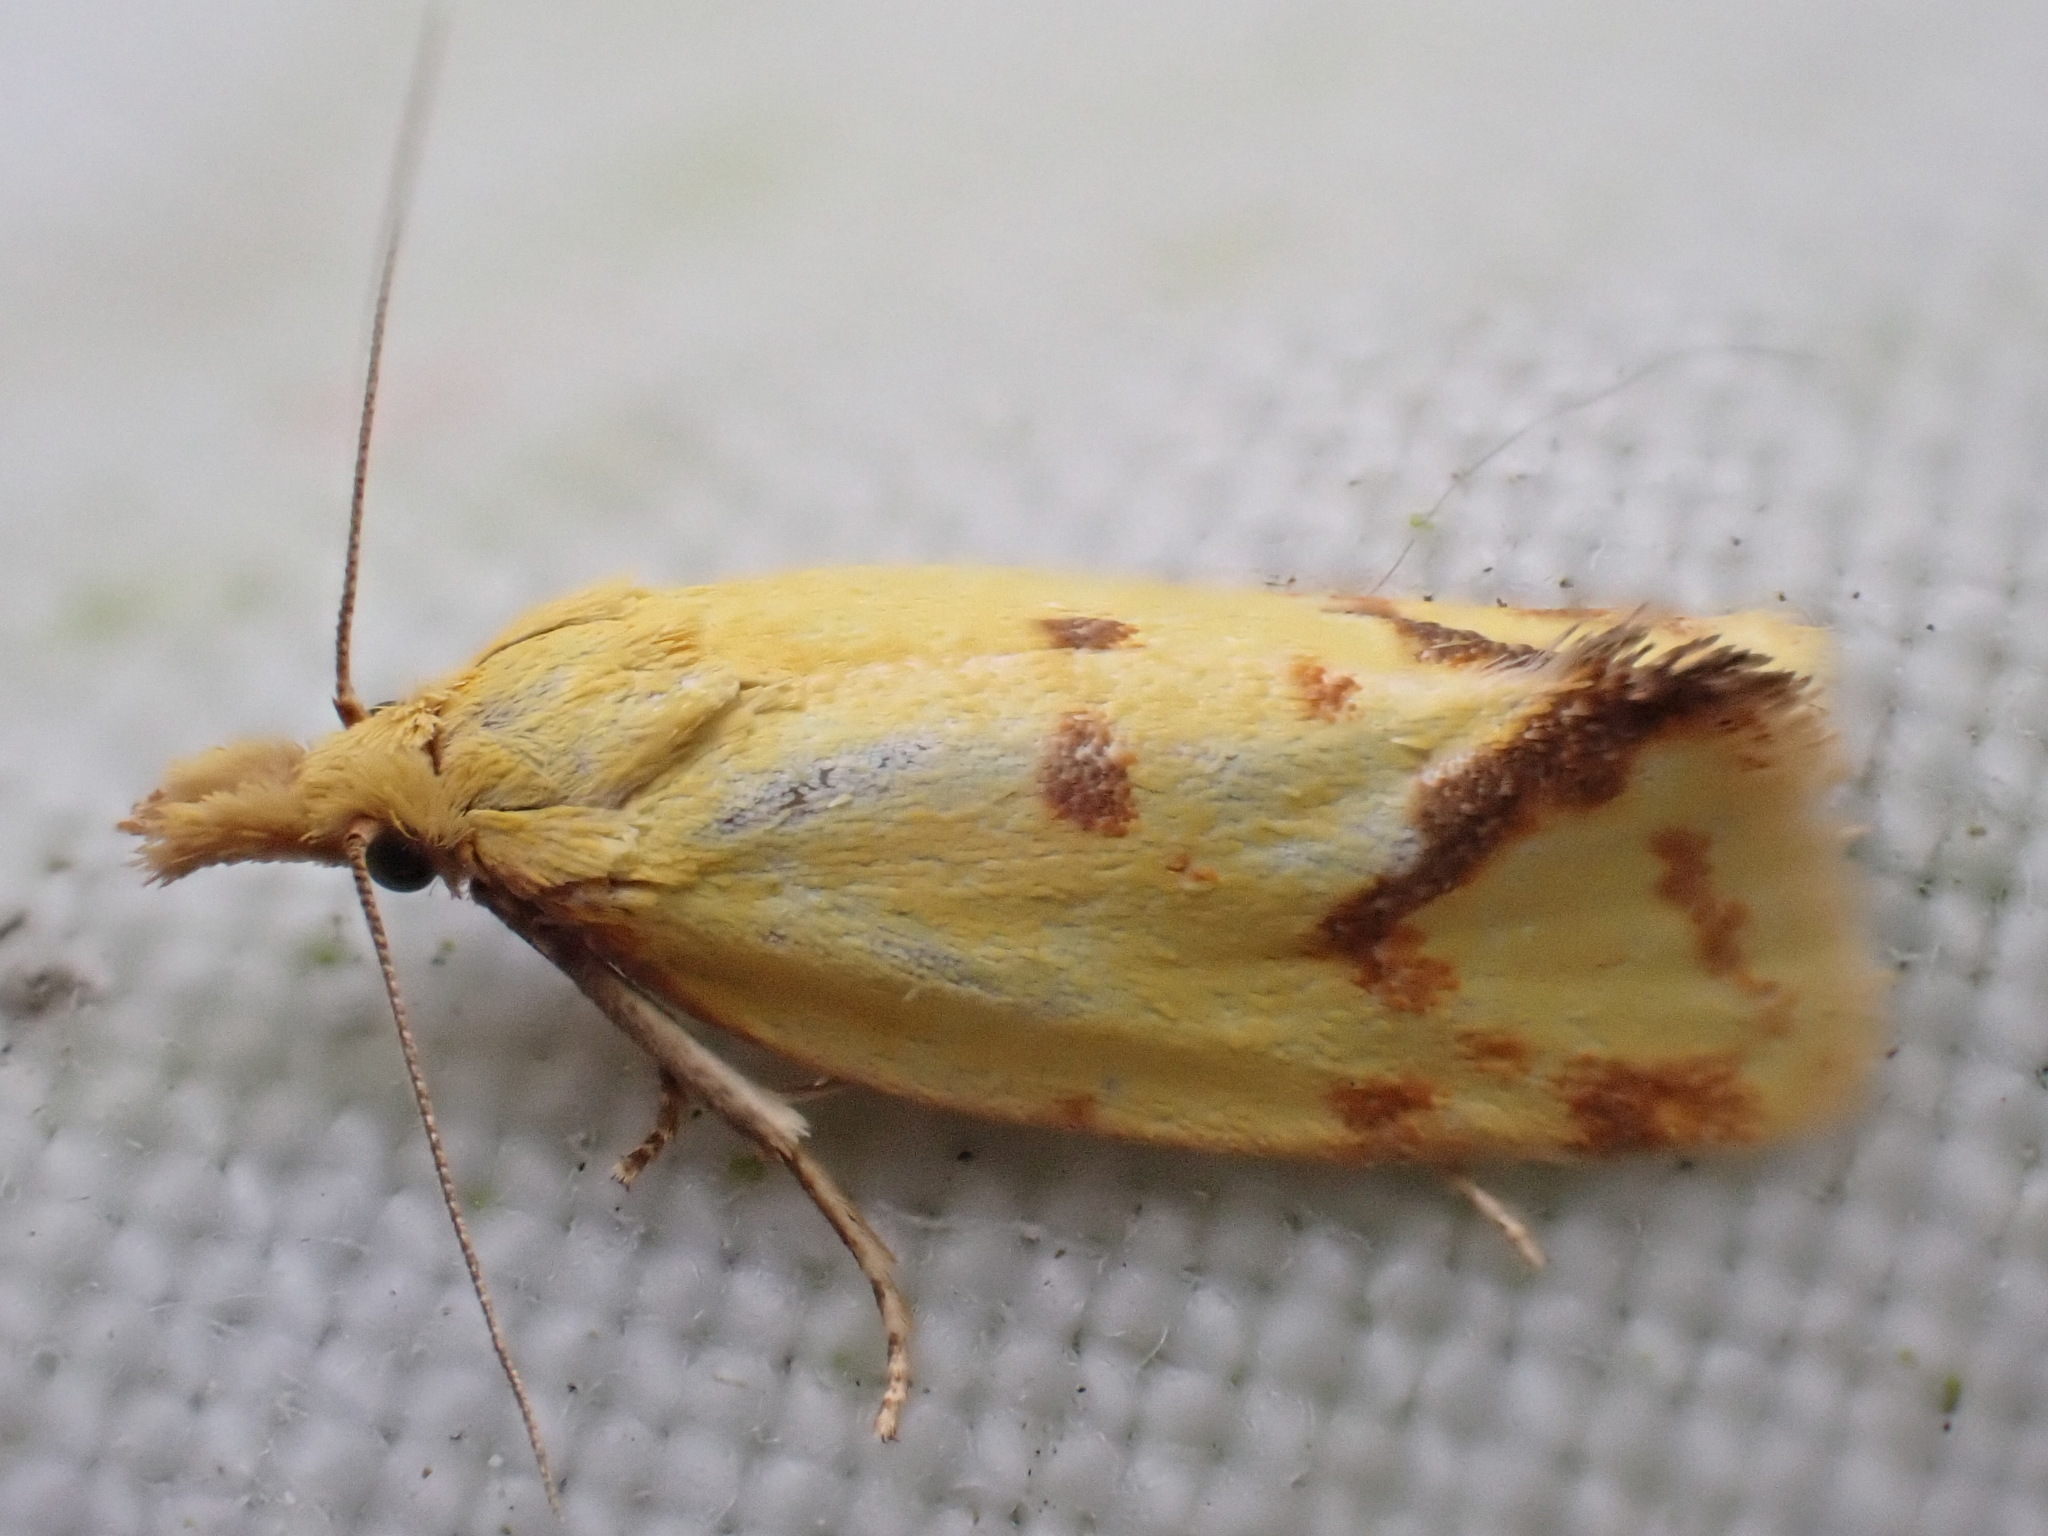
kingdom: Animalia
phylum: Arthropoda
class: Insecta
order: Lepidoptera
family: Tortricidae
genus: Agapeta
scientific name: Agapeta hamana
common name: Common yellow conch
